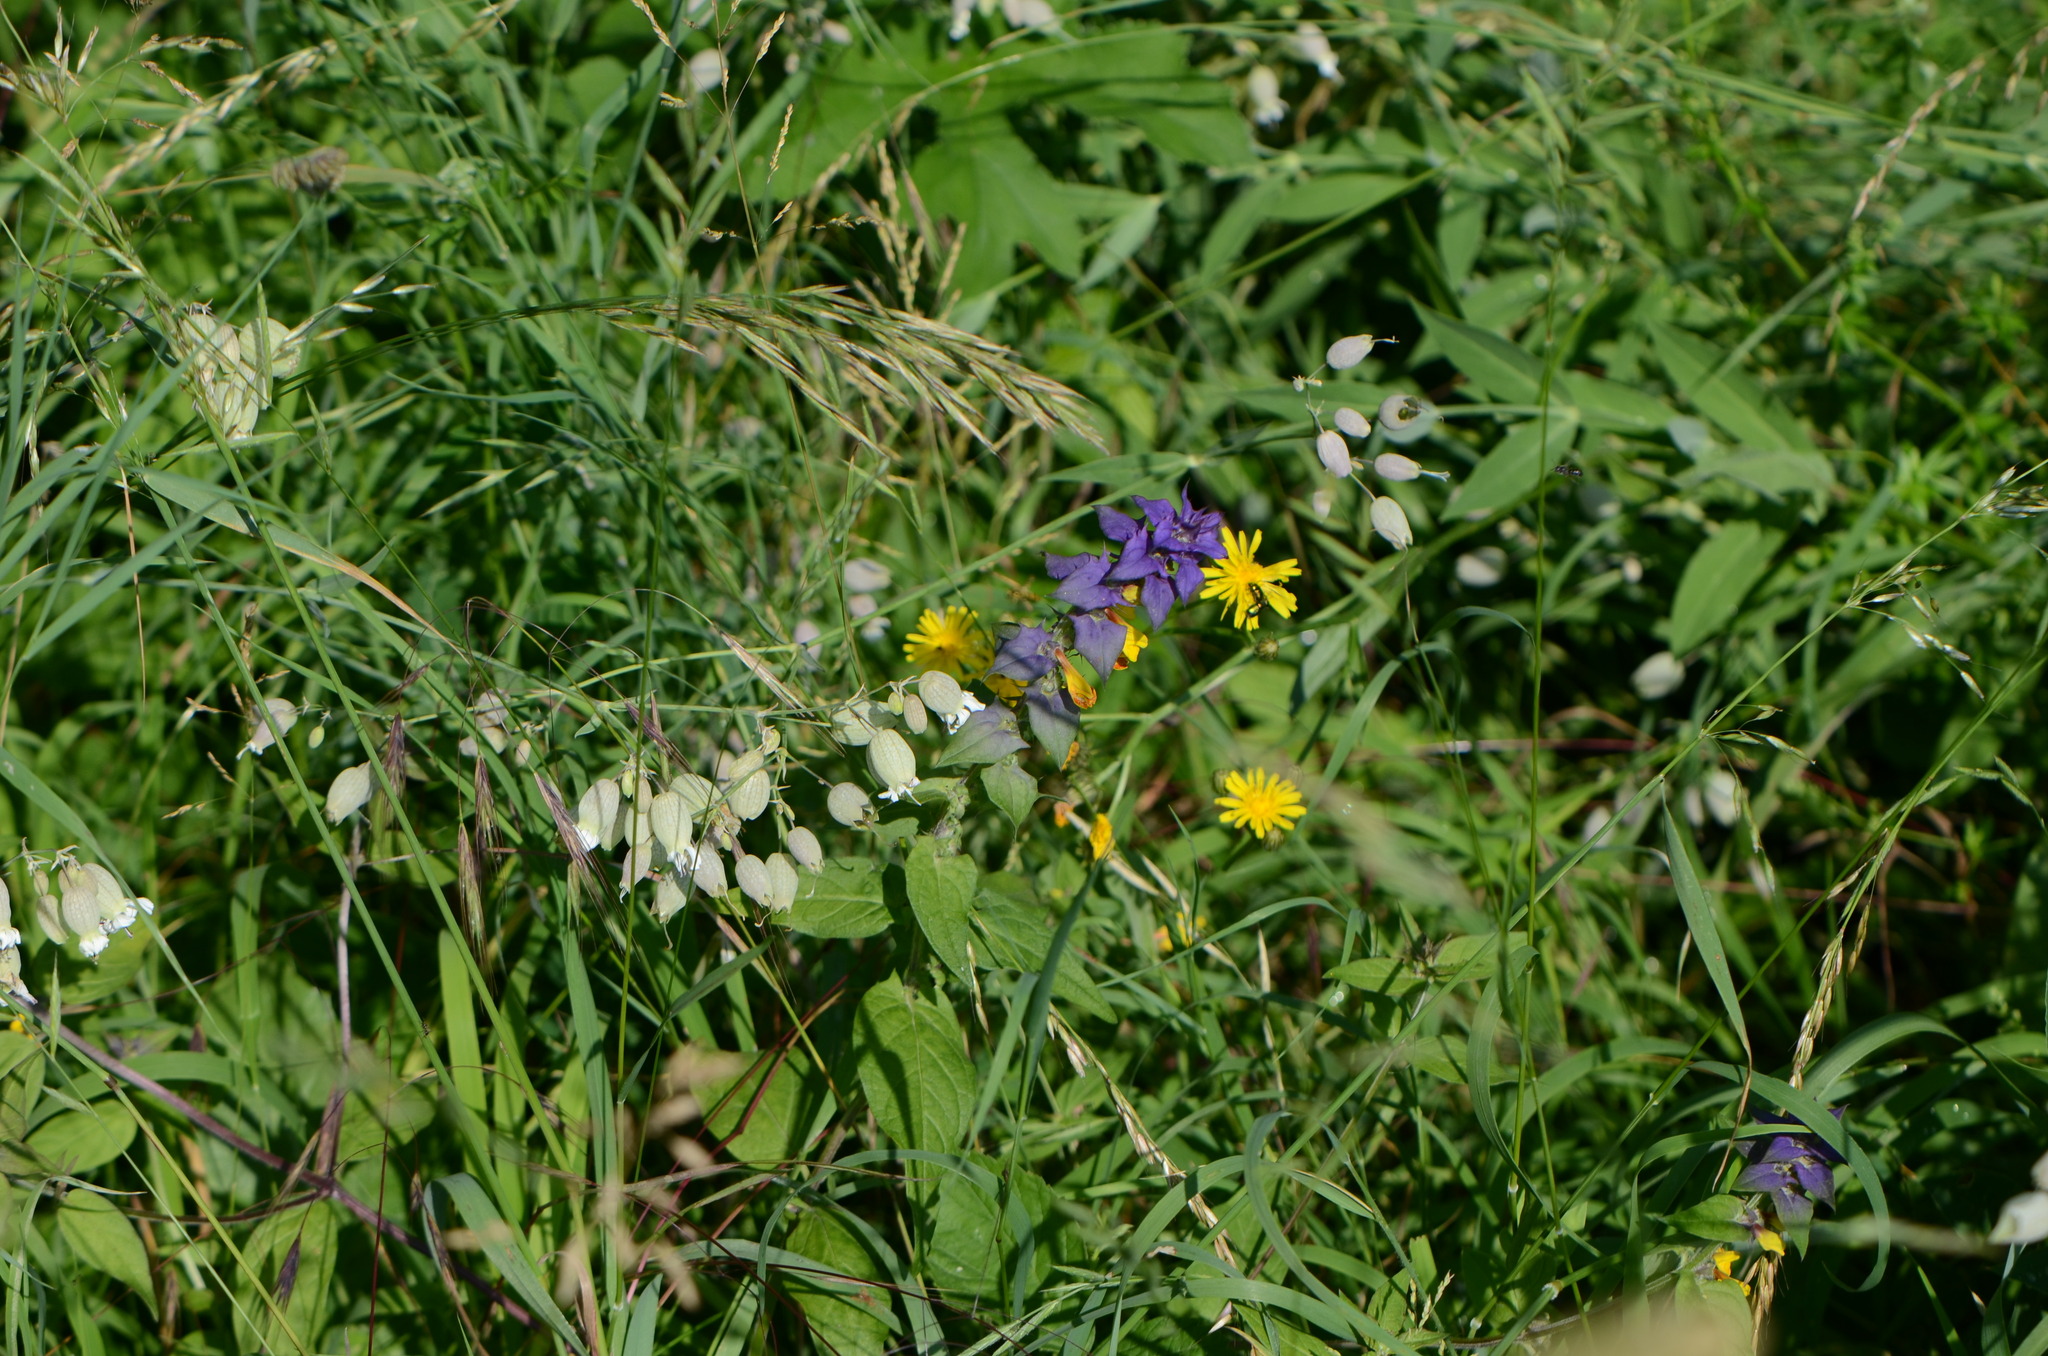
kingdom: Plantae
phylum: Tracheophyta
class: Magnoliopsida
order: Lamiales
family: Orobanchaceae
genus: Melampyrum
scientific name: Melampyrum nemorosum
